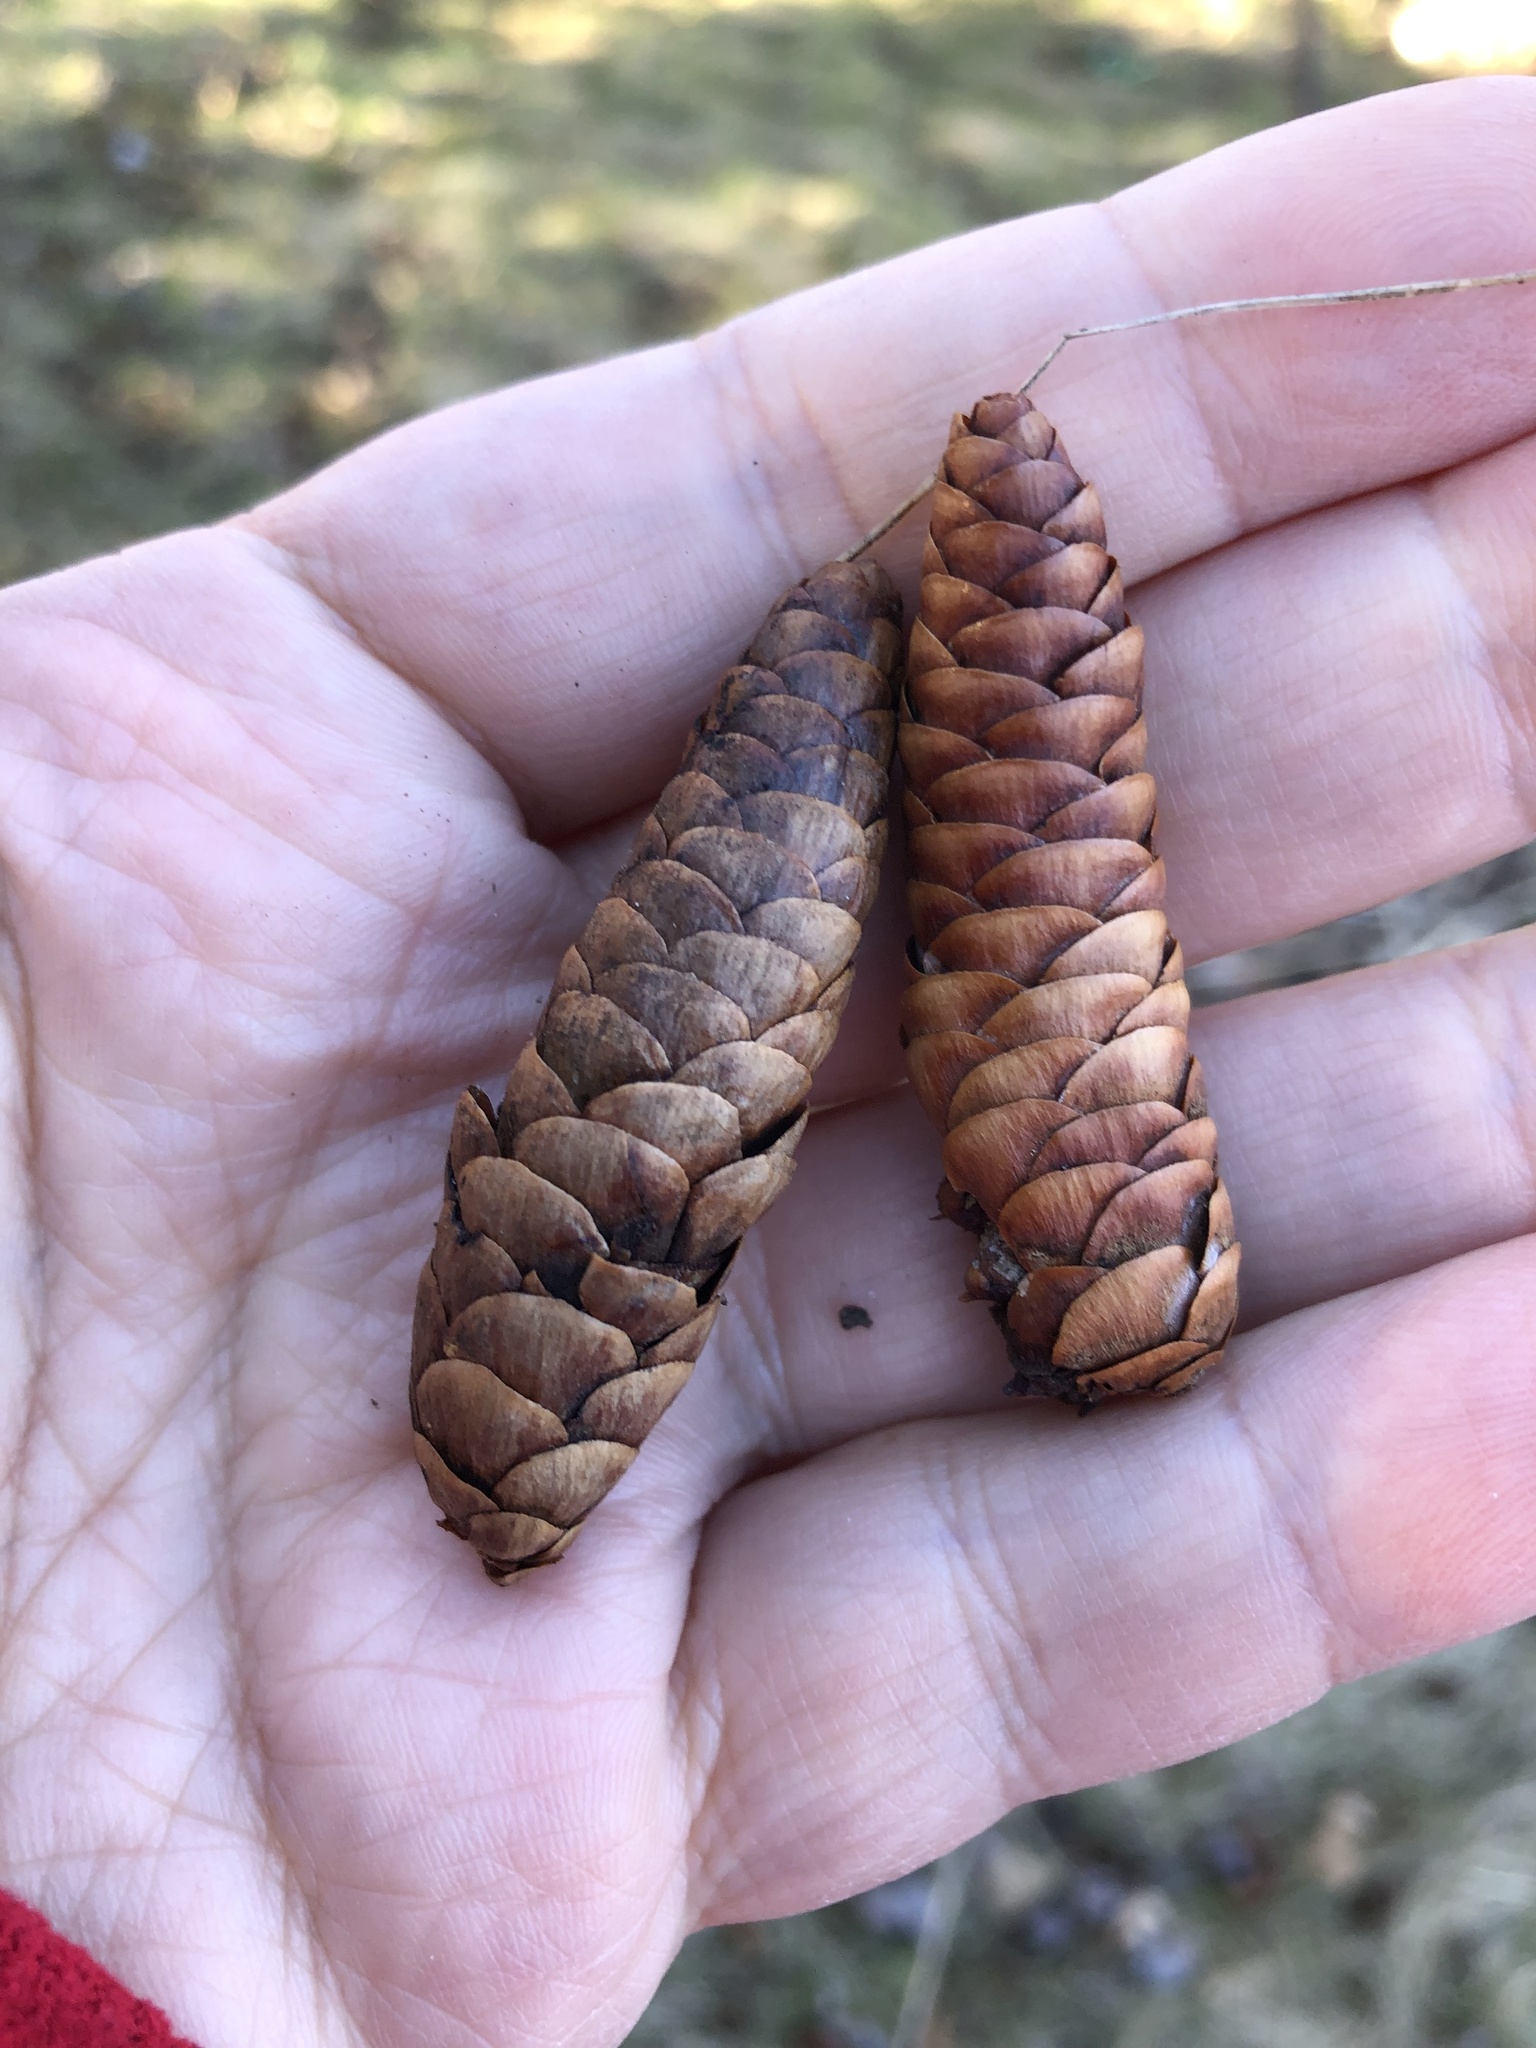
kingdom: Plantae
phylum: Tracheophyta
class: Pinopsida
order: Pinales
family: Pinaceae
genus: Picea
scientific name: Picea glauca
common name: White spruce
